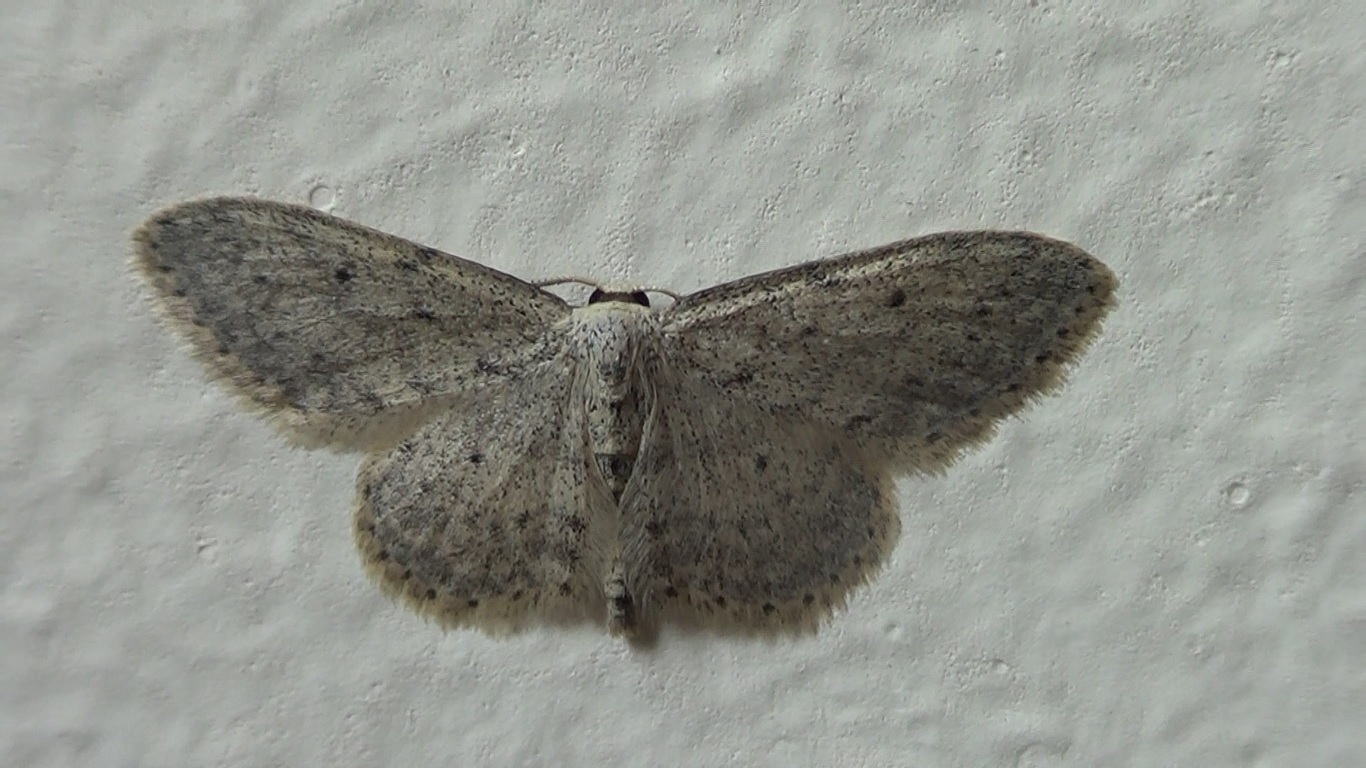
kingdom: Animalia
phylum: Arthropoda
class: Insecta
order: Lepidoptera
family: Geometridae
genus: Idaea
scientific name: Idaea seriata
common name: Small dusty wave
